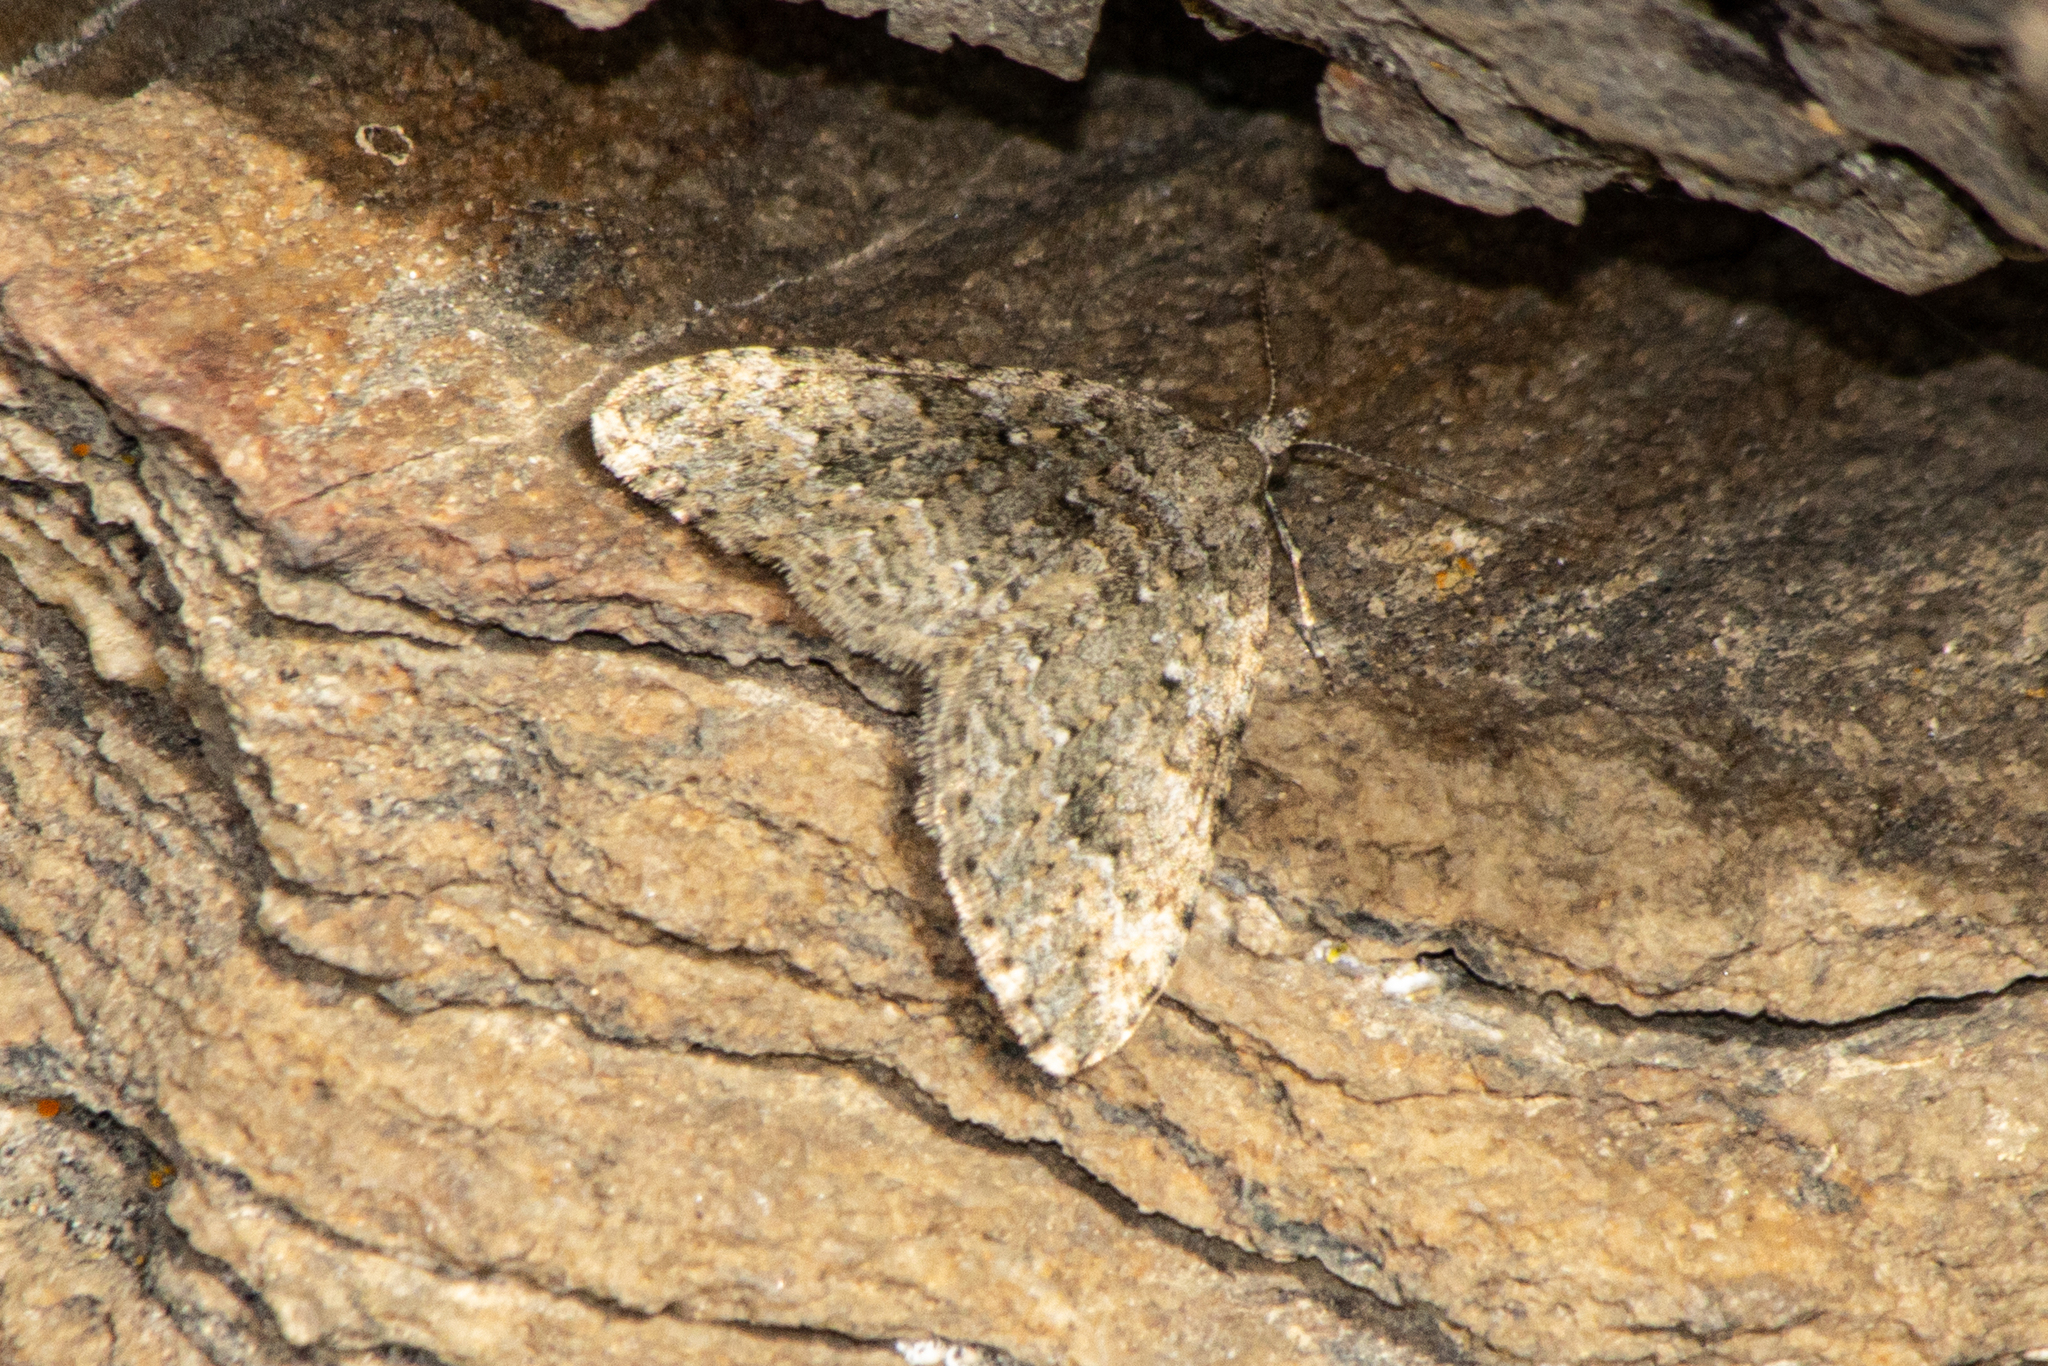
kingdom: Animalia
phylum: Arthropoda
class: Insecta
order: Lepidoptera
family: Geometridae
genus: Helastia
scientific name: Helastia corcularia
